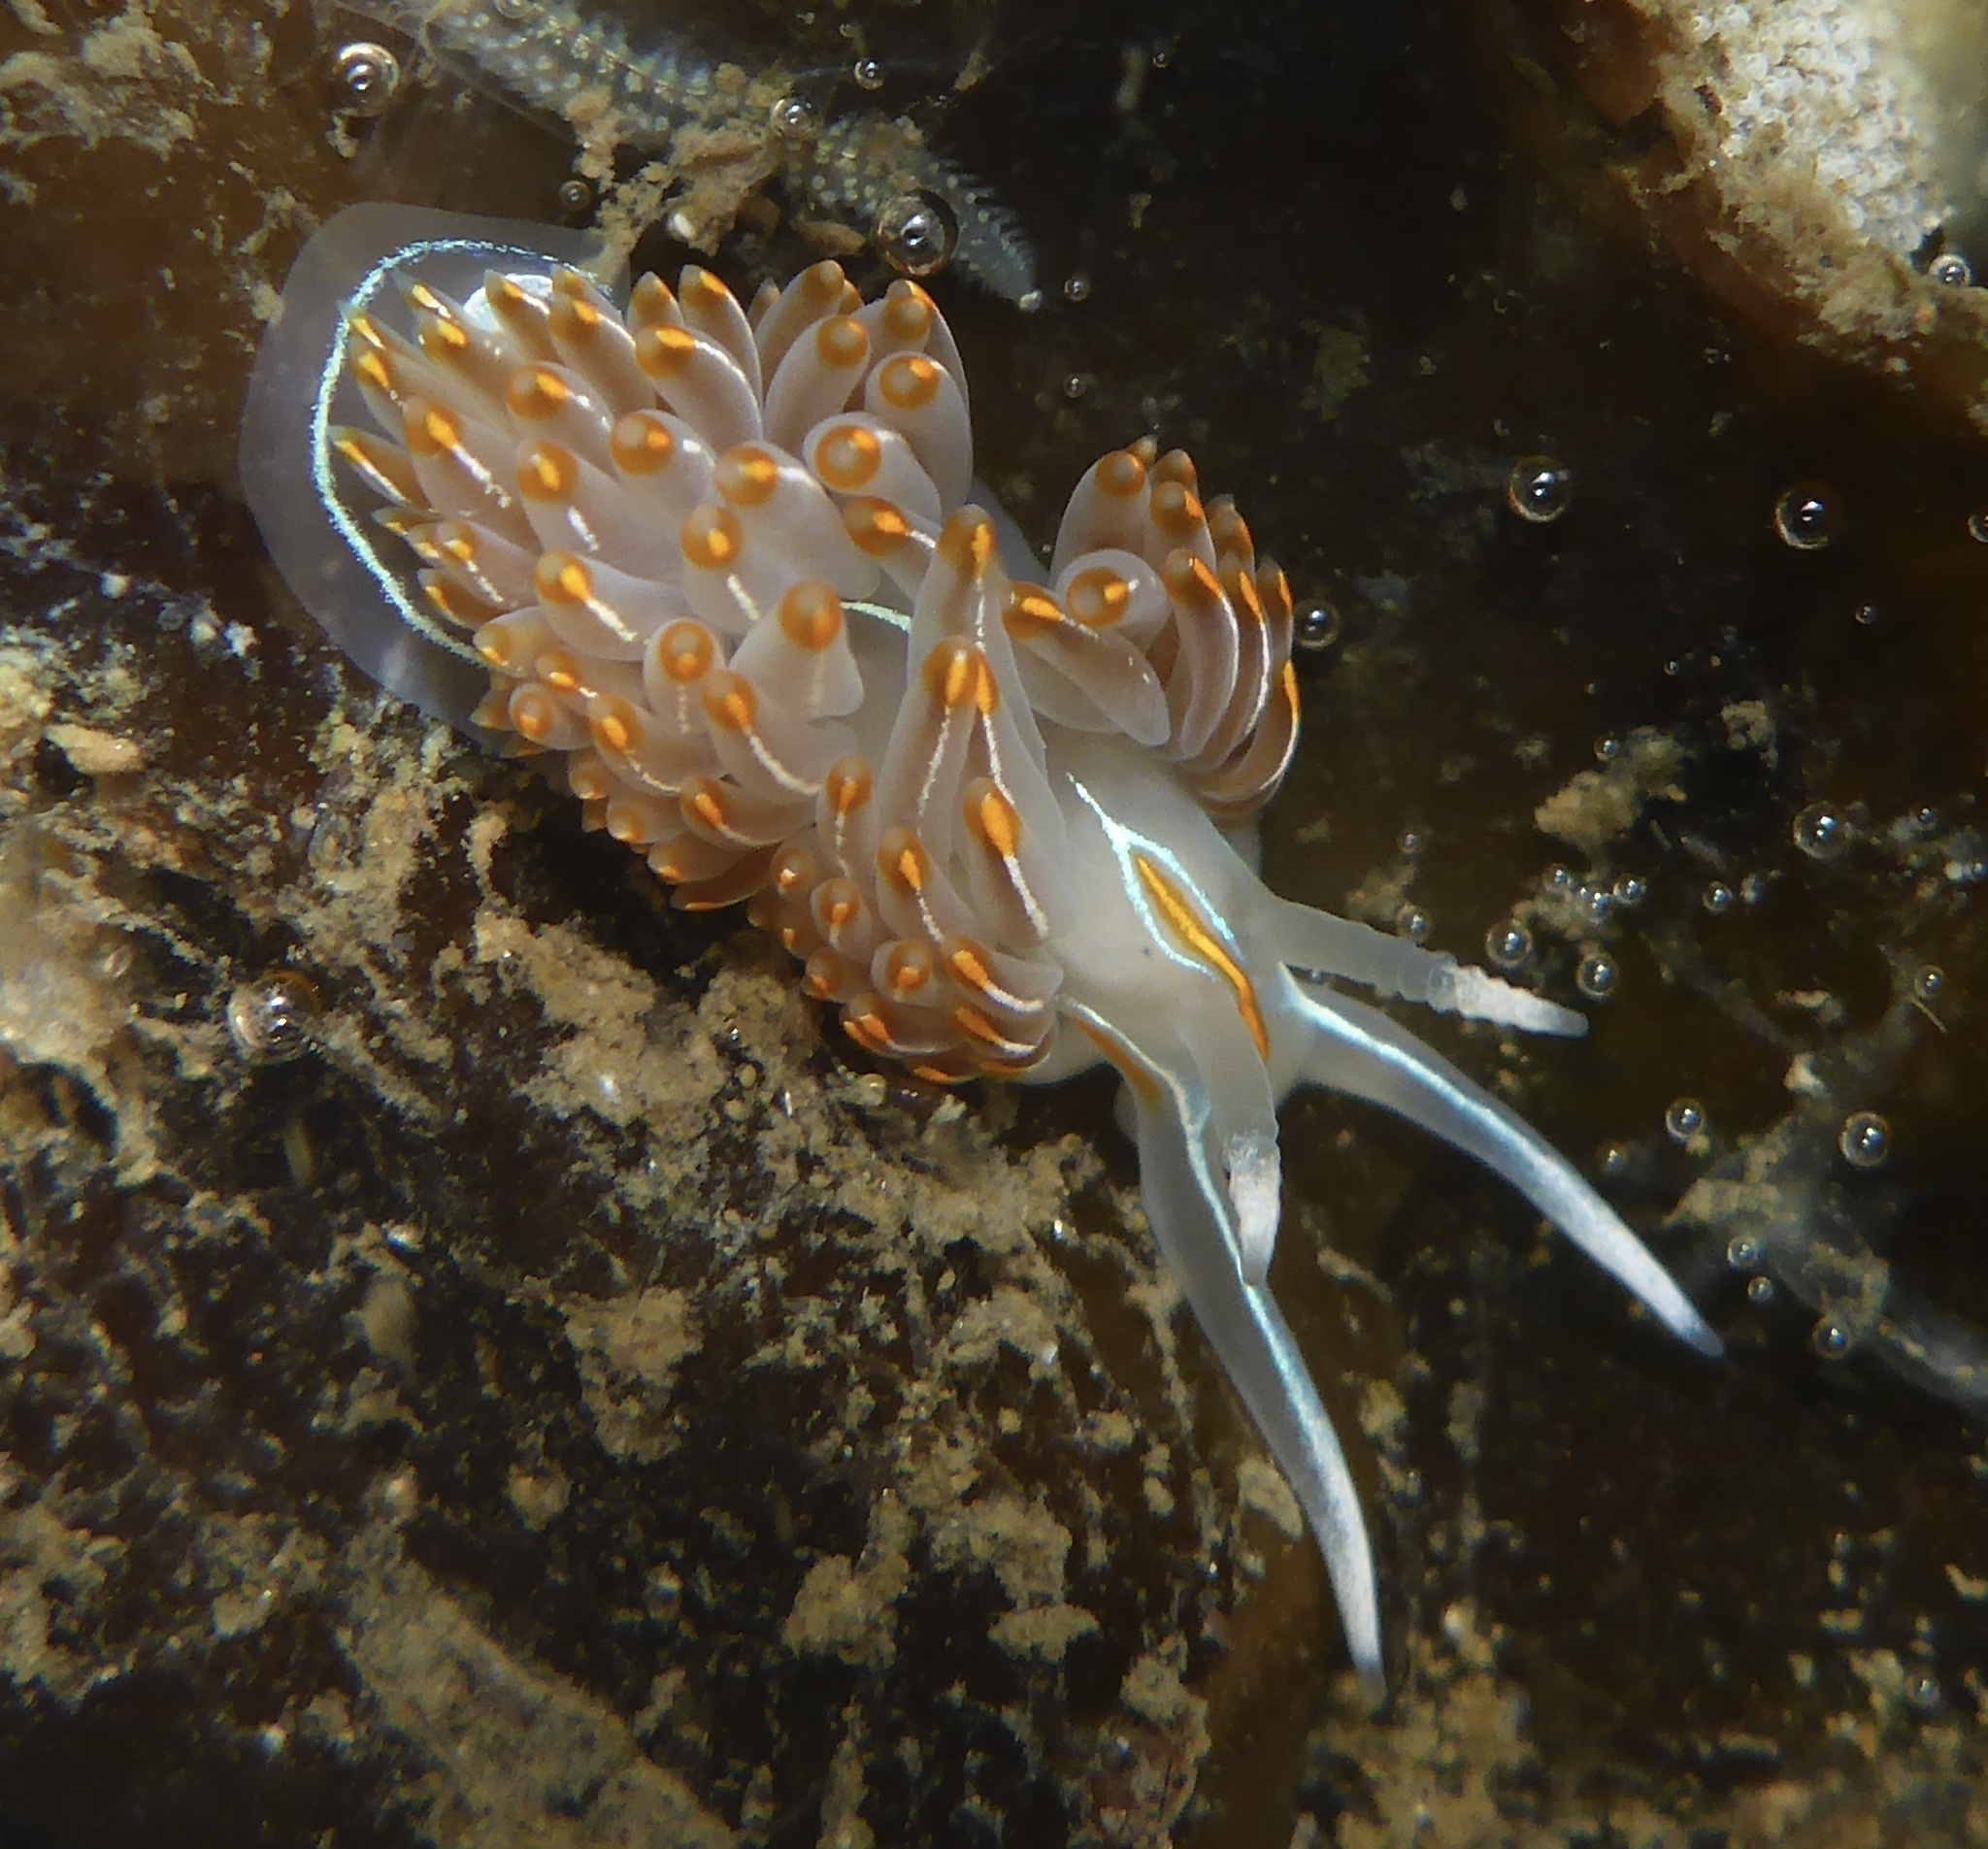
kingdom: Animalia
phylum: Mollusca
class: Gastropoda
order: Nudibranchia
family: Myrrhinidae
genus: Hermissenda
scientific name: Hermissenda crassicornis
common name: Hermissenda
